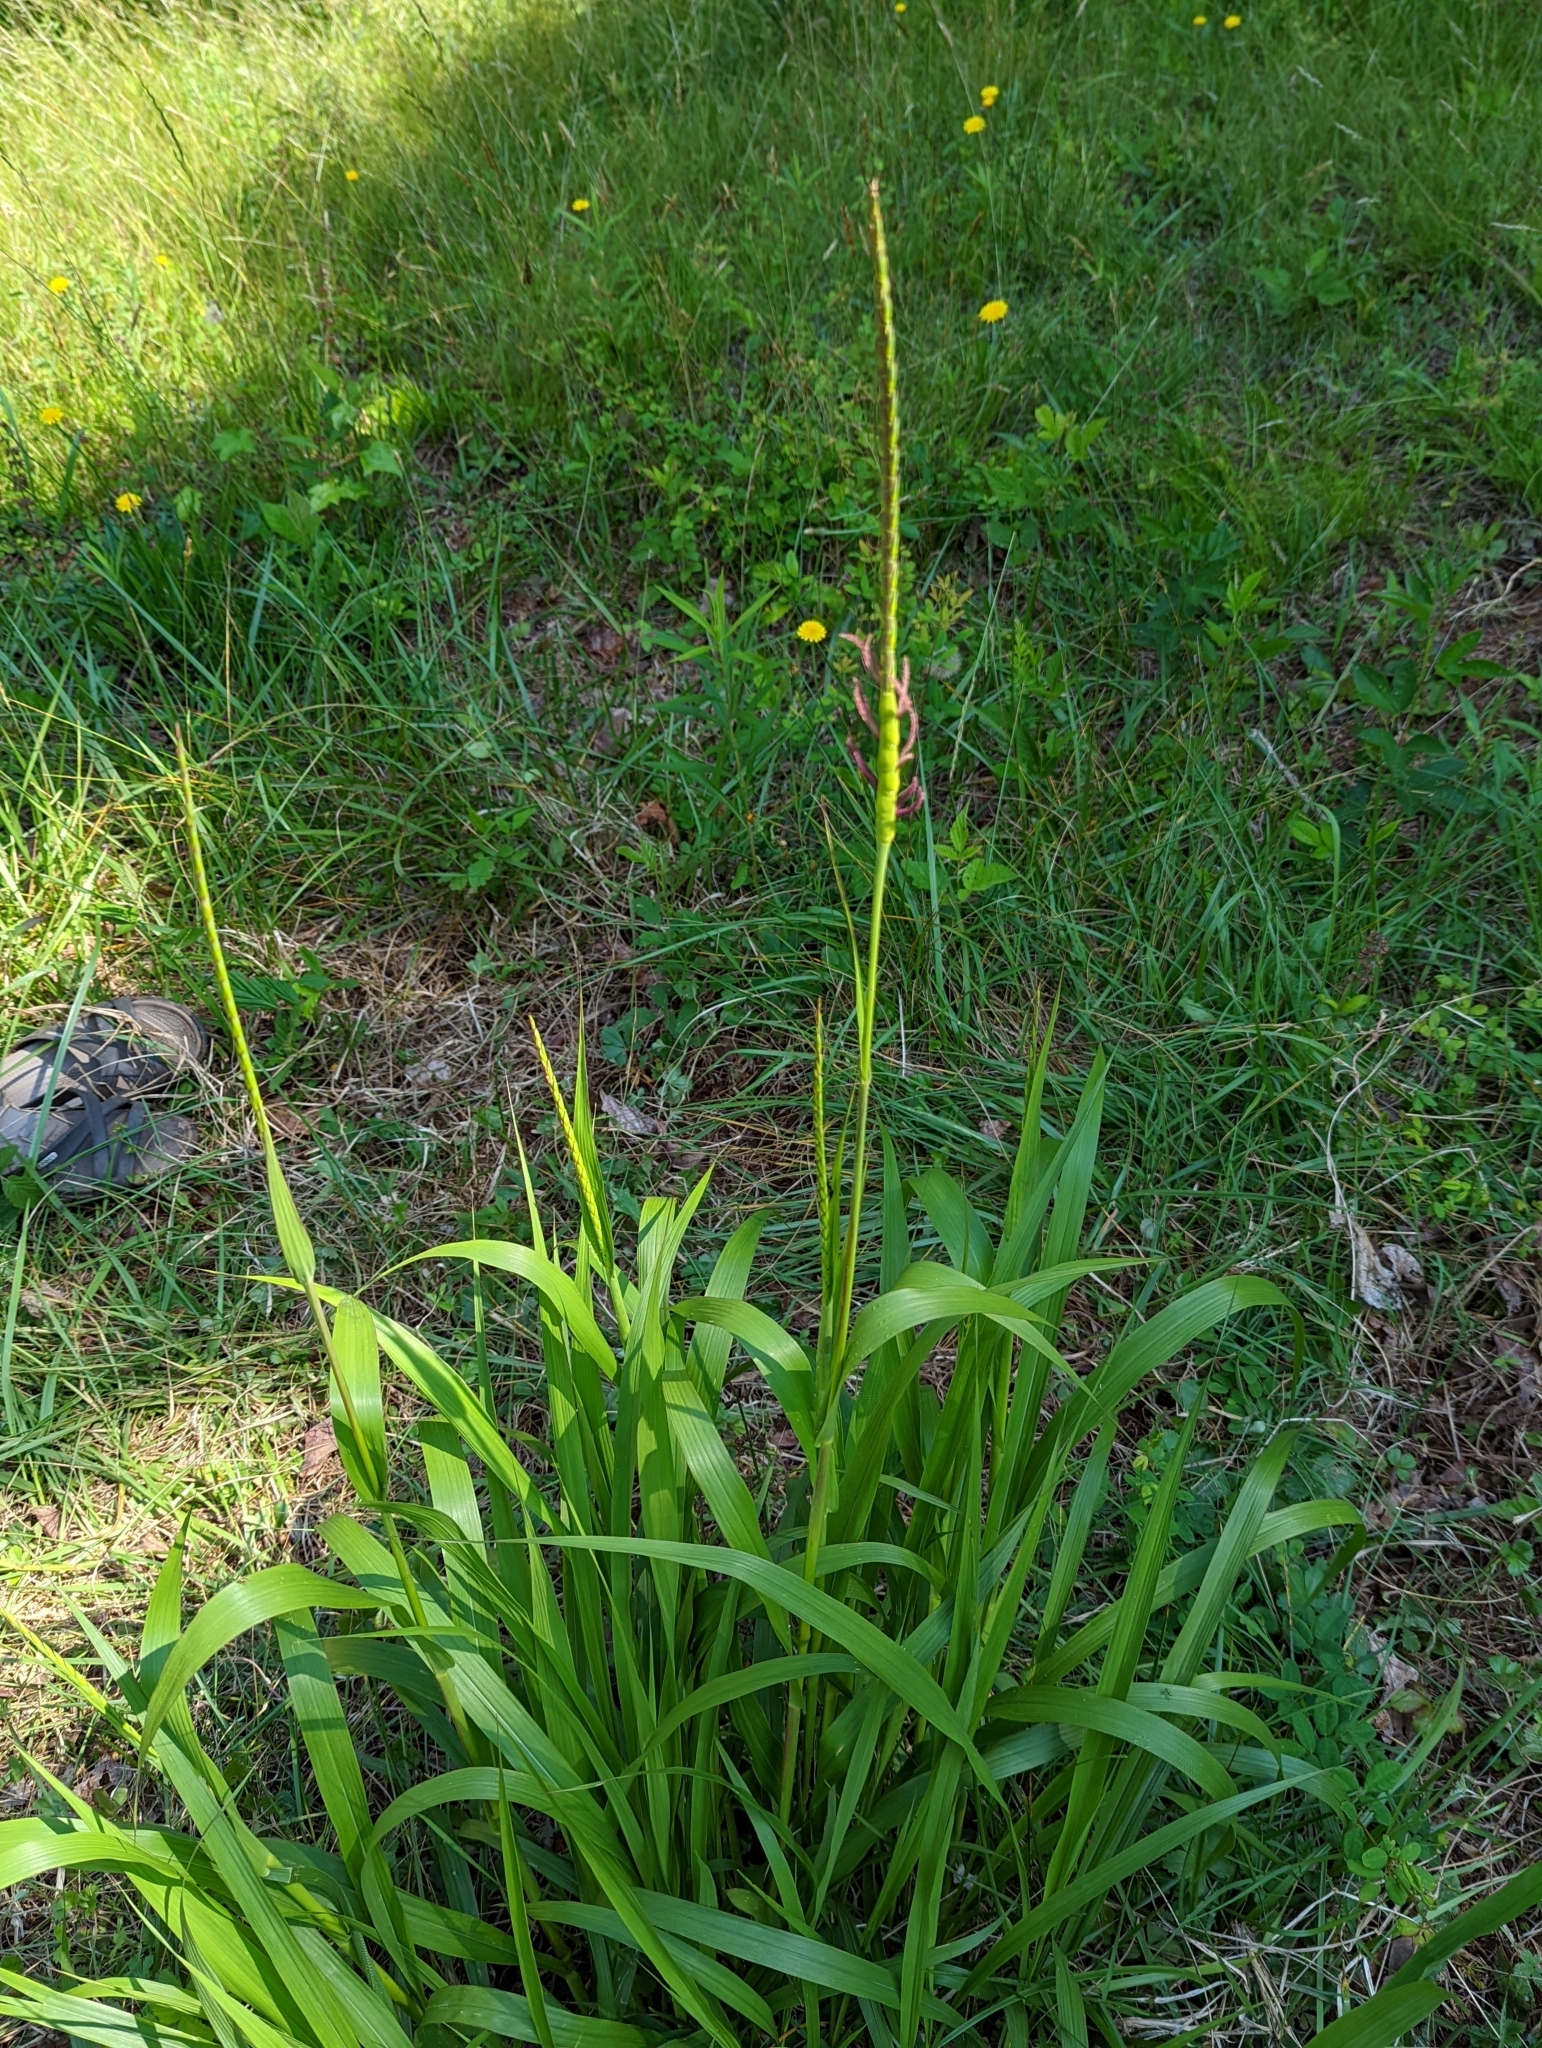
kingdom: Plantae
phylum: Tracheophyta
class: Liliopsida
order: Poales
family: Poaceae
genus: Tripsacum
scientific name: Tripsacum dactyloides
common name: Buffalo-grass
